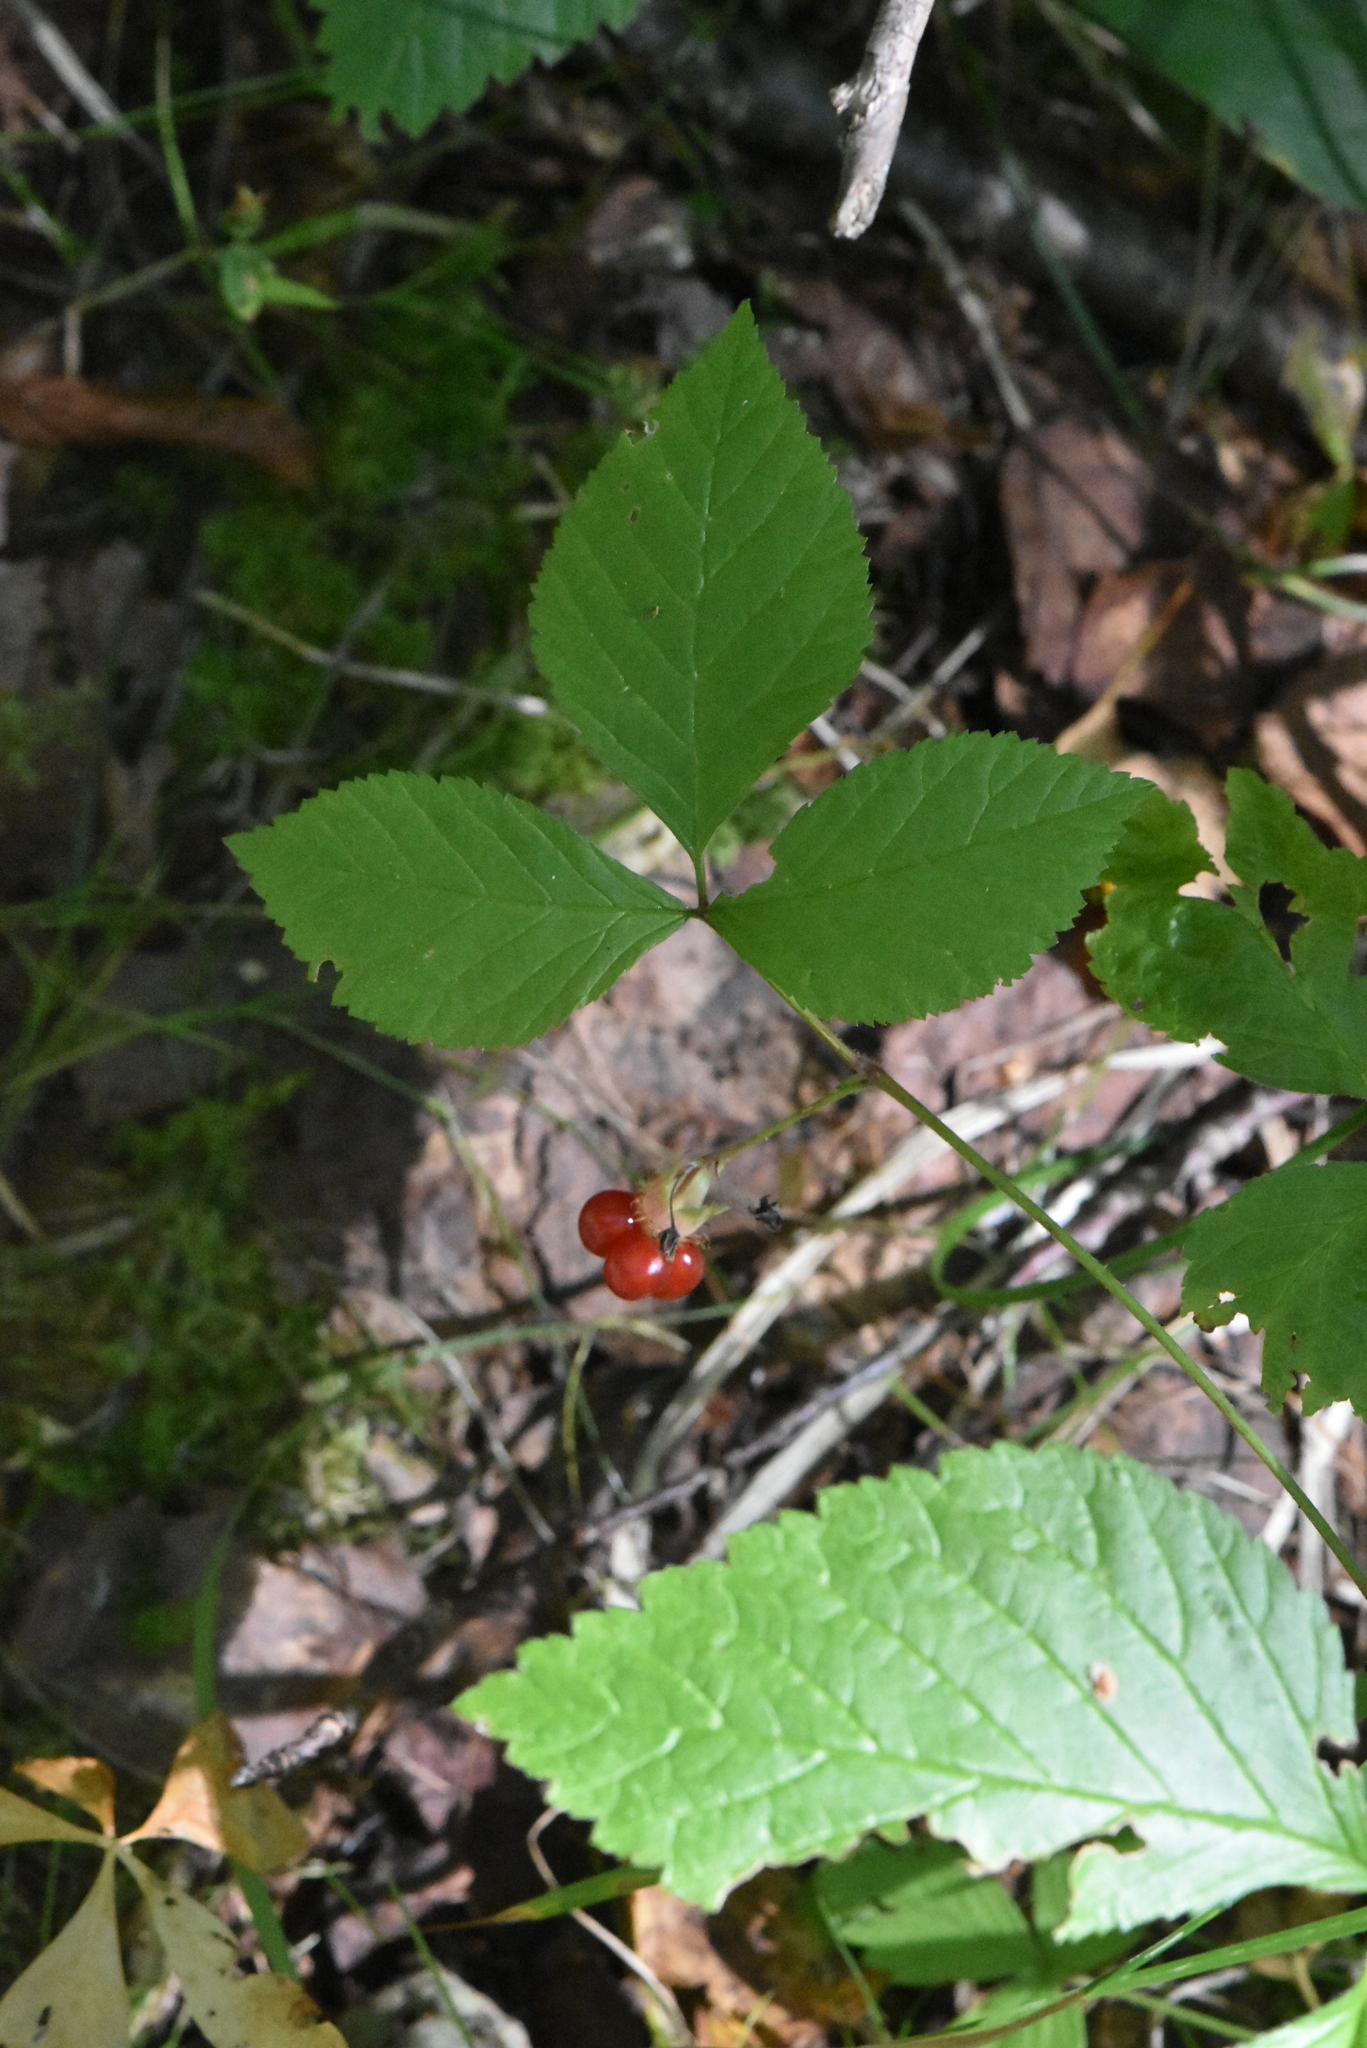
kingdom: Plantae
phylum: Tracheophyta
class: Magnoliopsida
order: Rosales
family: Rosaceae
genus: Rubus
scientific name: Rubus saxatilis
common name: Stone bramble
